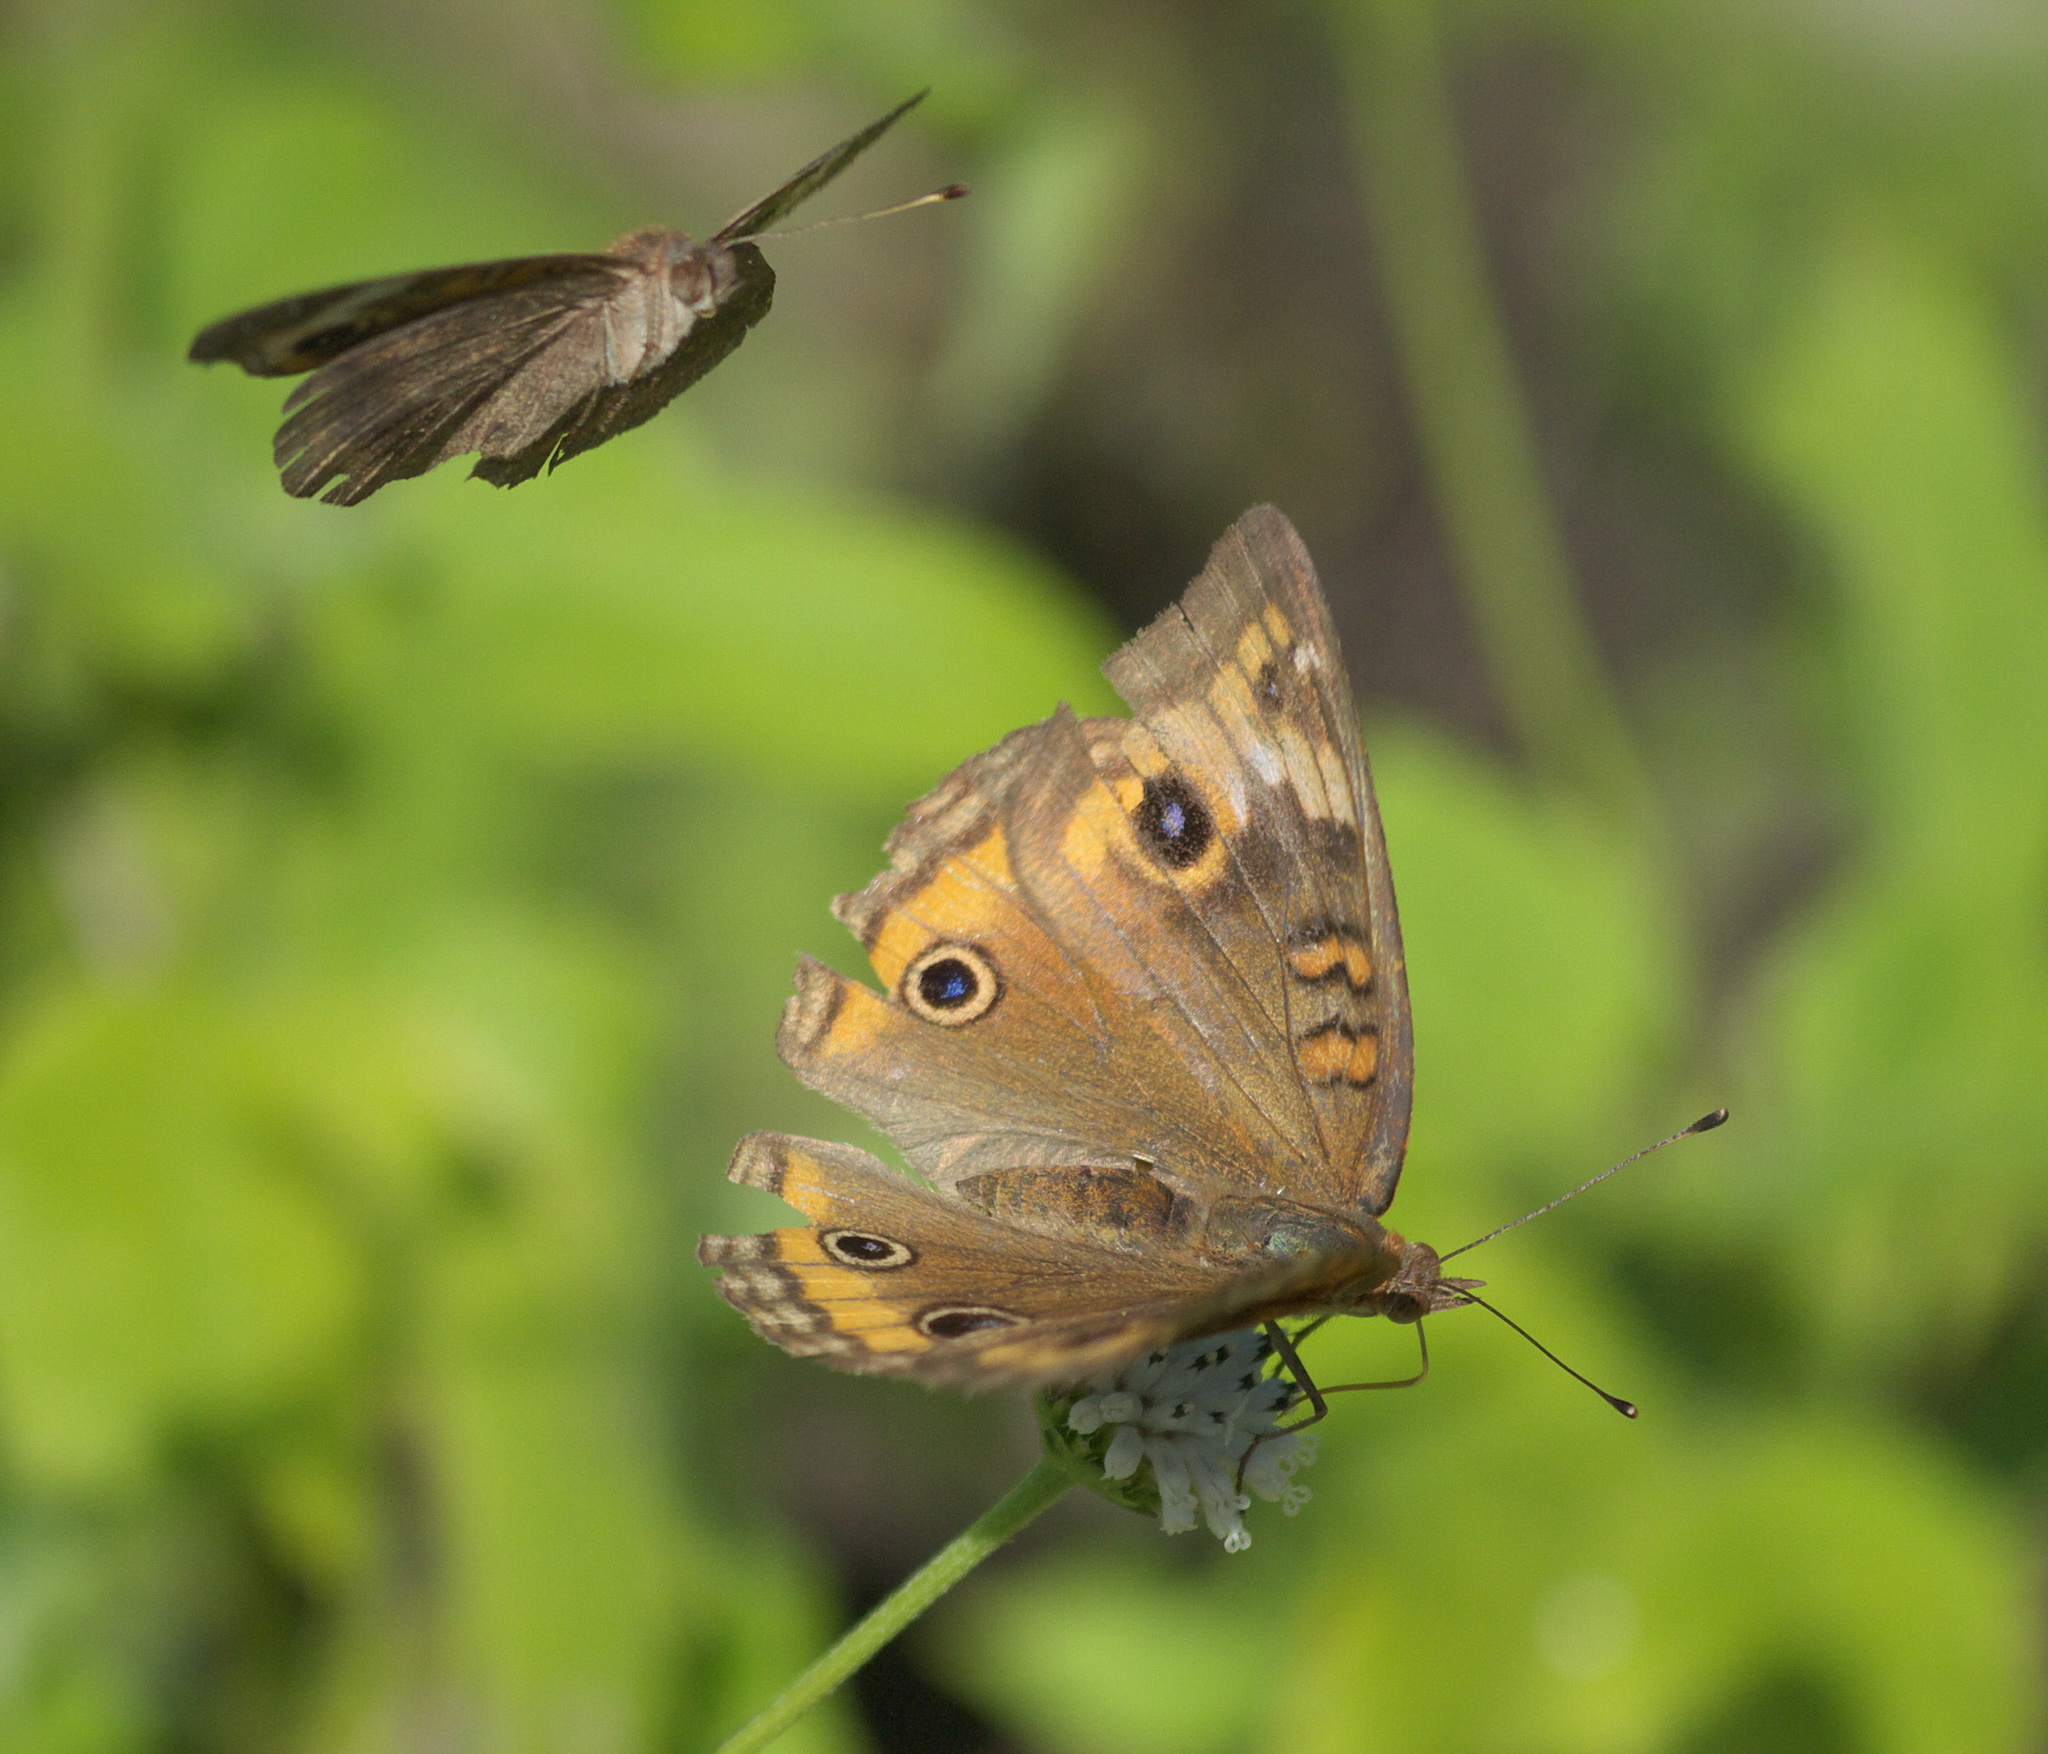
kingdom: Animalia
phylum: Arthropoda
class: Insecta
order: Lepidoptera
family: Nymphalidae
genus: Junonia
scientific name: Junonia neildi
